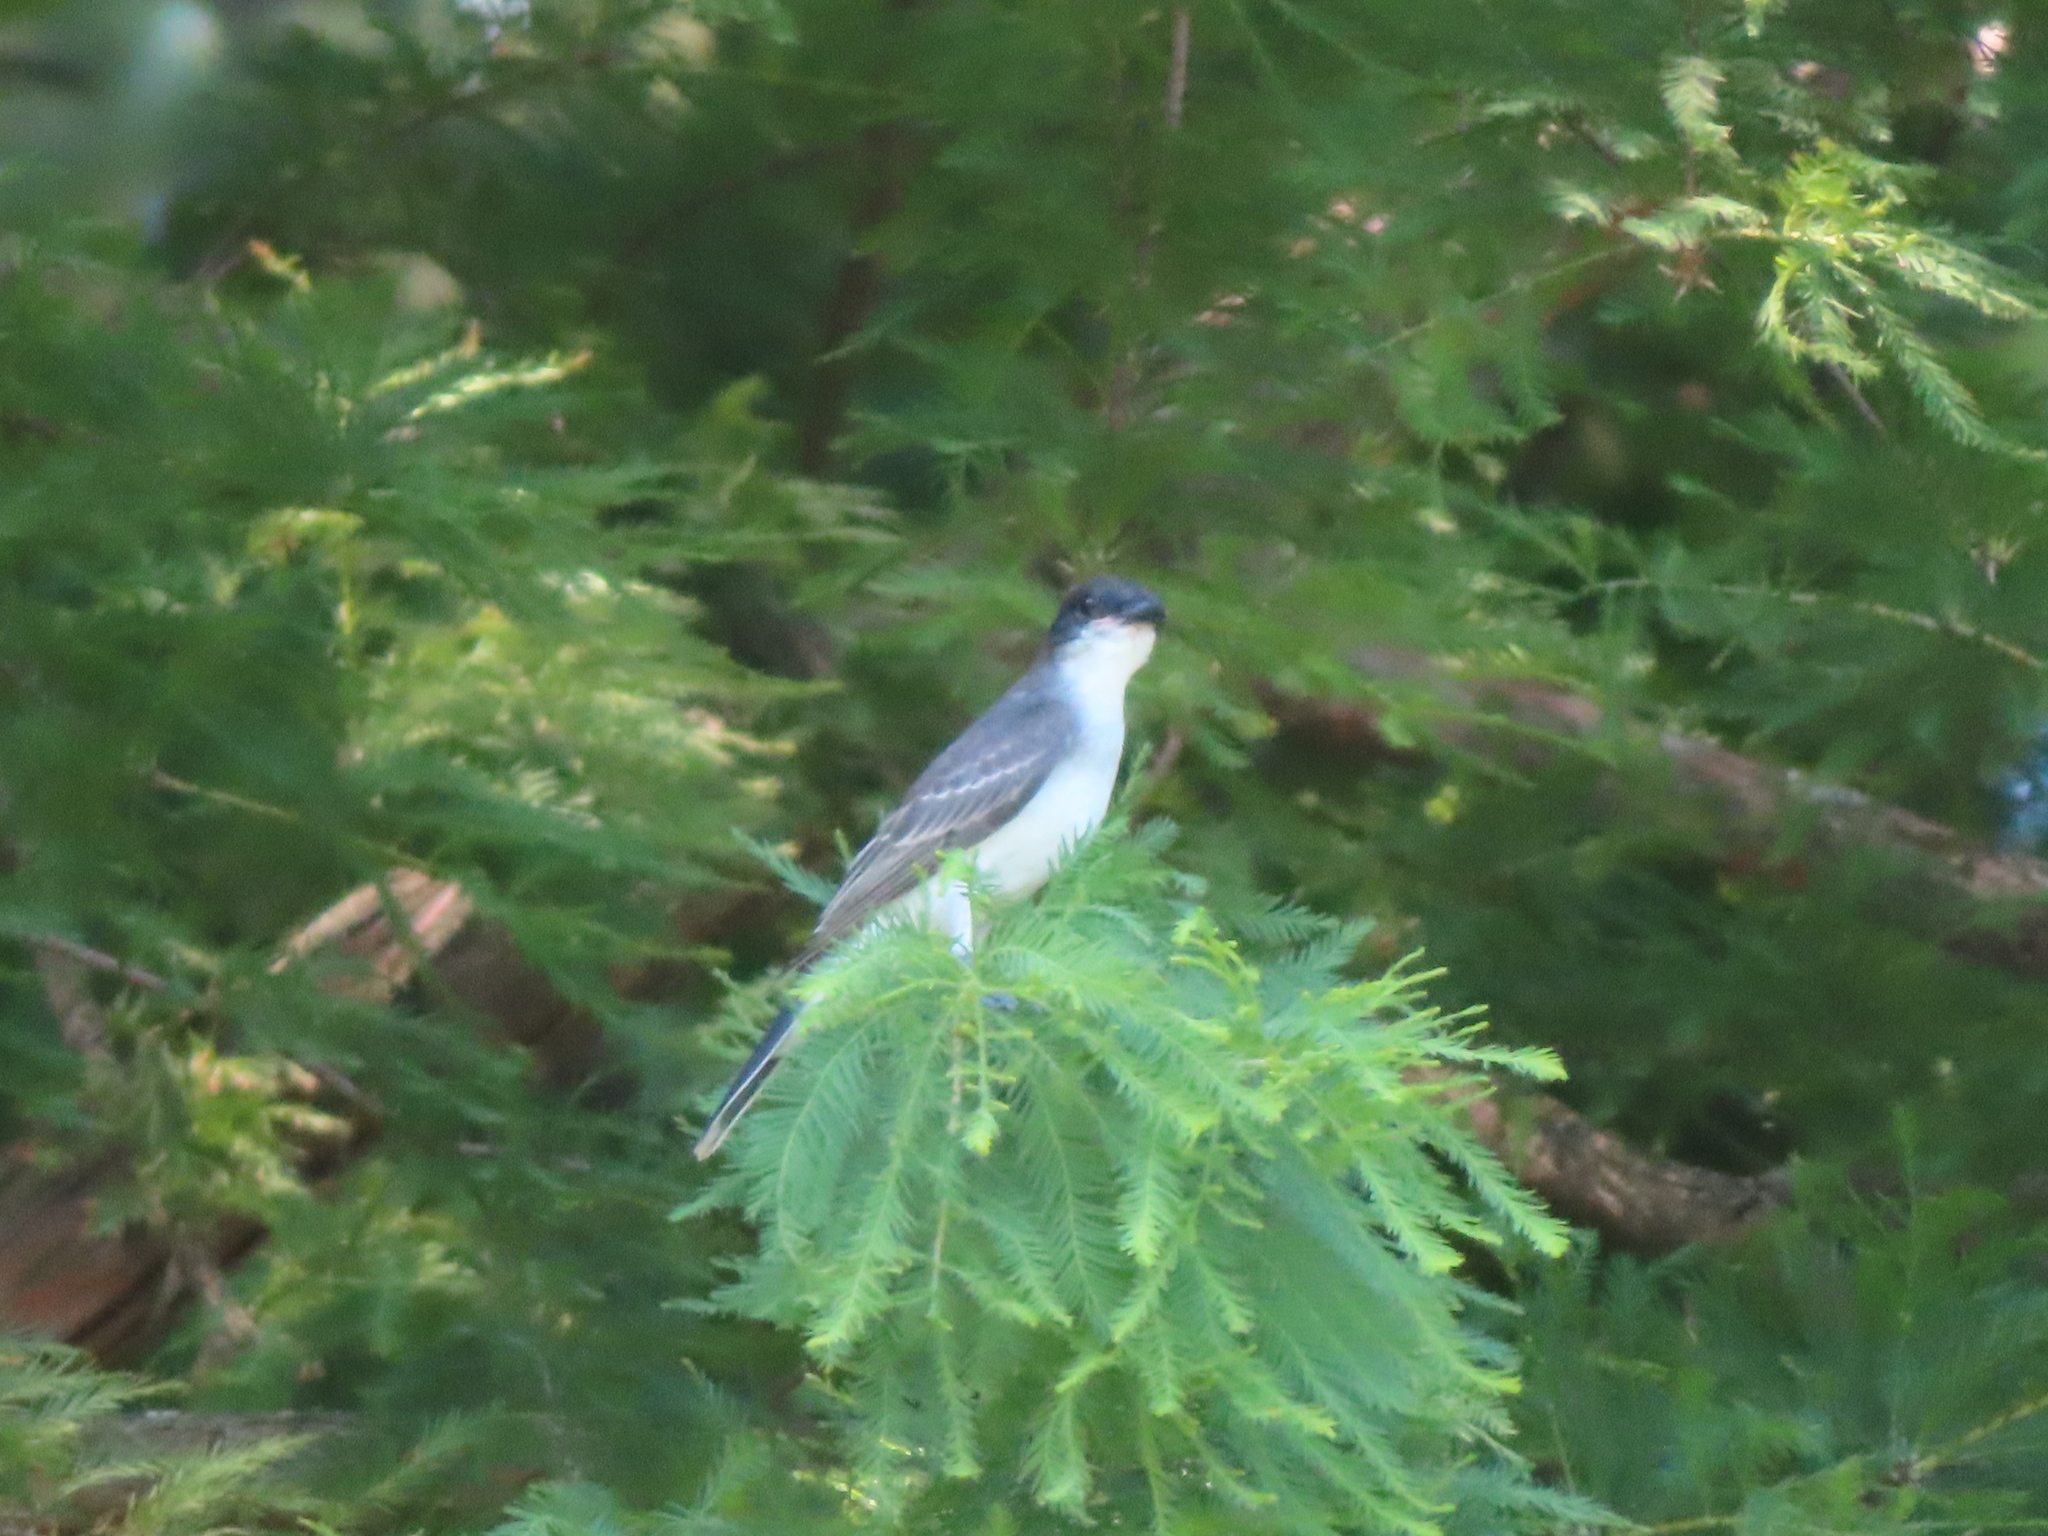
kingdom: Animalia
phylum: Chordata
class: Aves
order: Passeriformes
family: Tyrannidae
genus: Tyrannus
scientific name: Tyrannus tyrannus
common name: Eastern kingbird
